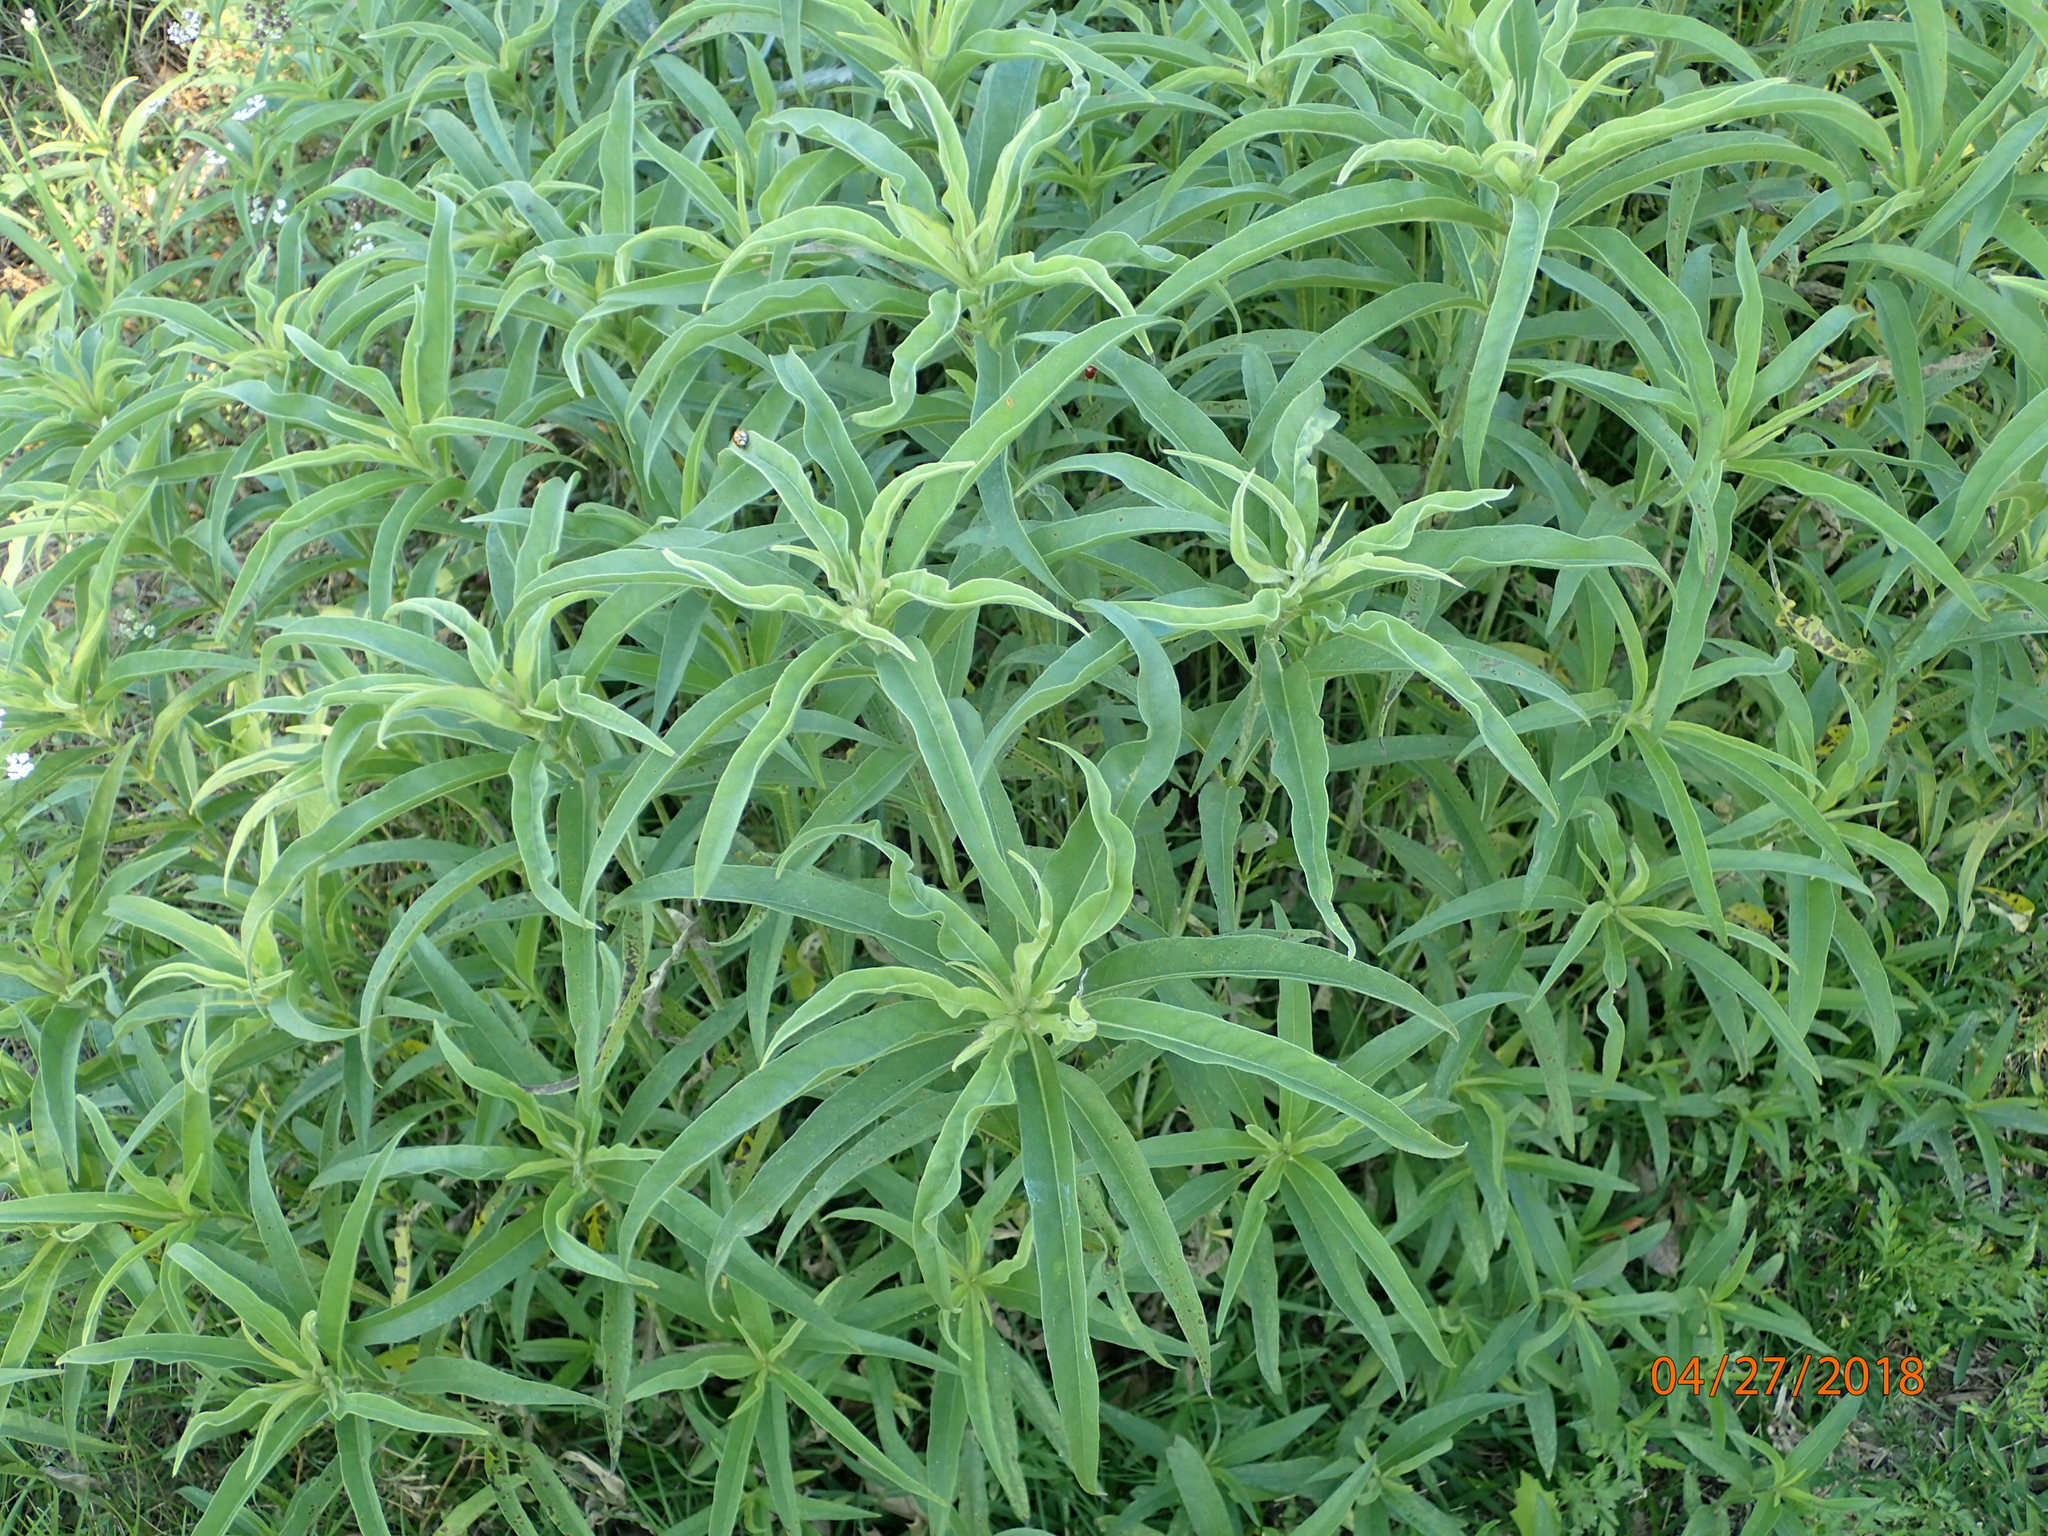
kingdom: Plantae
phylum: Tracheophyta
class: Magnoliopsida
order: Asterales
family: Asteraceae
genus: Helianthus
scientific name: Helianthus maximiliani
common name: Maximilian's sunflower
